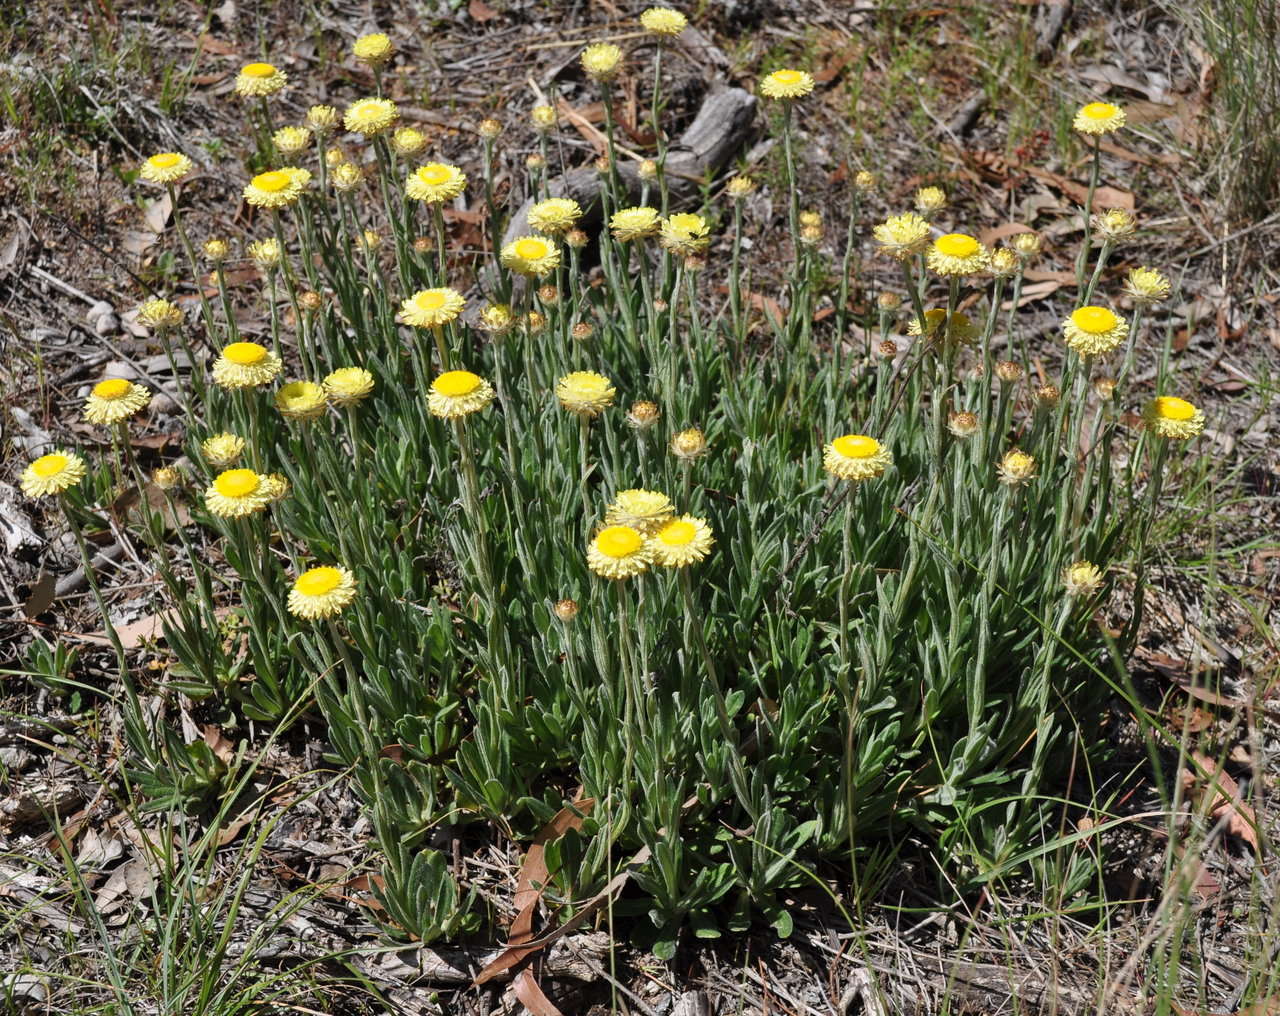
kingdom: Plantae
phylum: Tracheophyta
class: Magnoliopsida
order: Asterales
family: Asteraceae
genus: Coronidium
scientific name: Coronidium scorpioides
